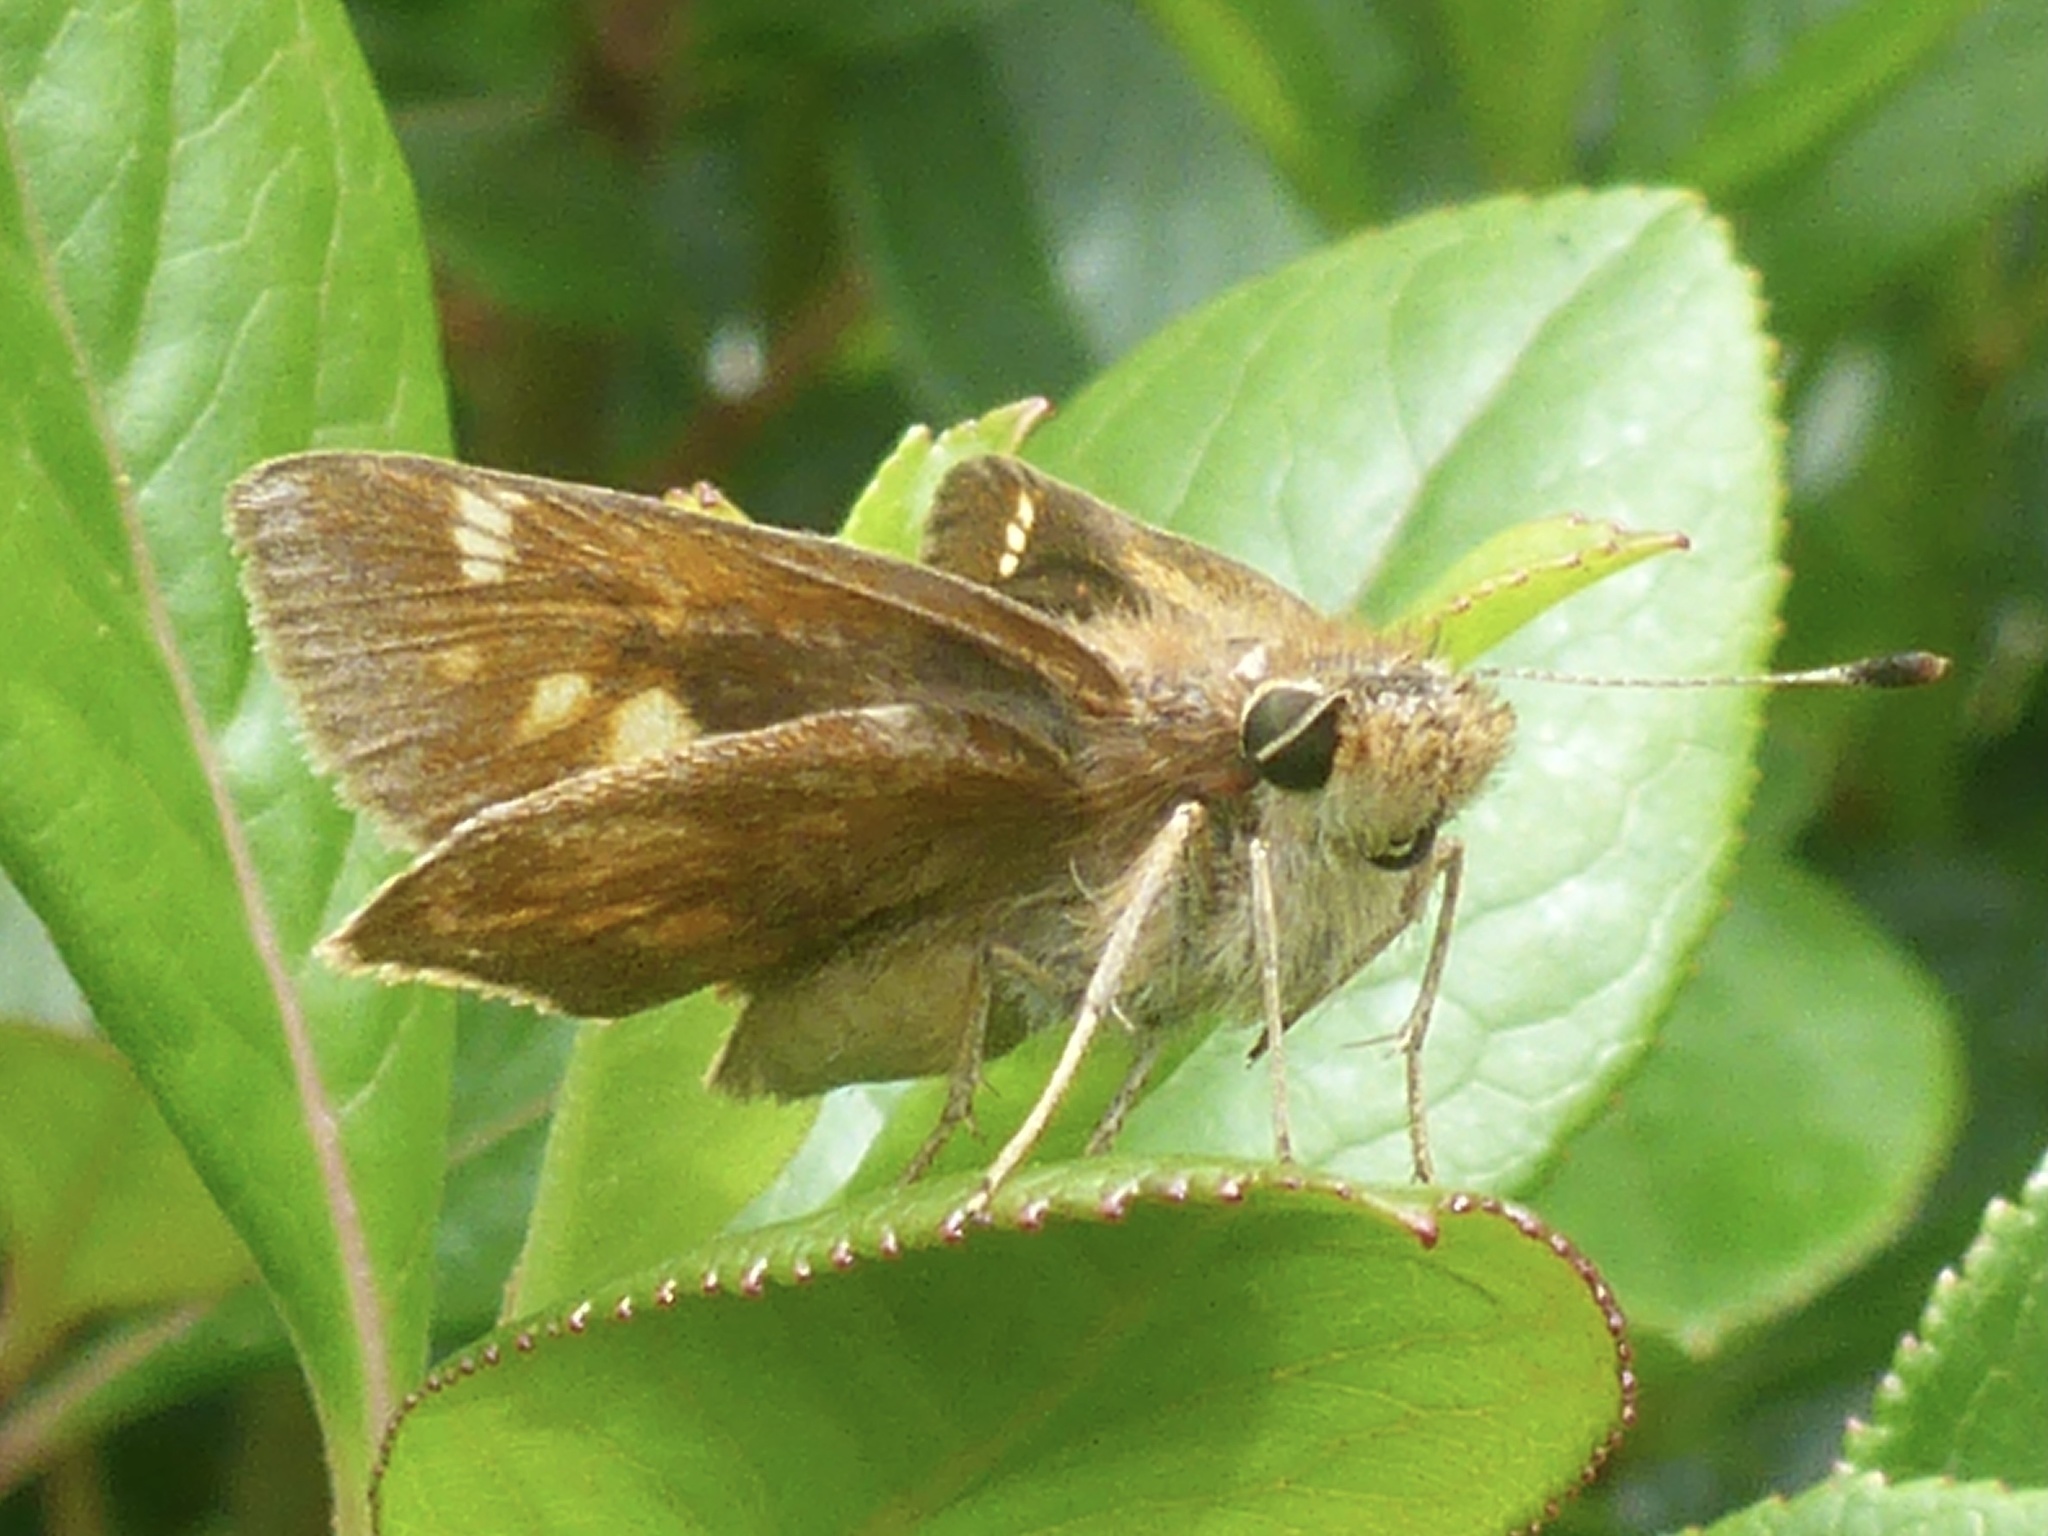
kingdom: Animalia
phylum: Arthropoda
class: Insecta
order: Lepidoptera
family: Hesperiidae
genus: Lon
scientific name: Lon melane
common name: Umber skipper
